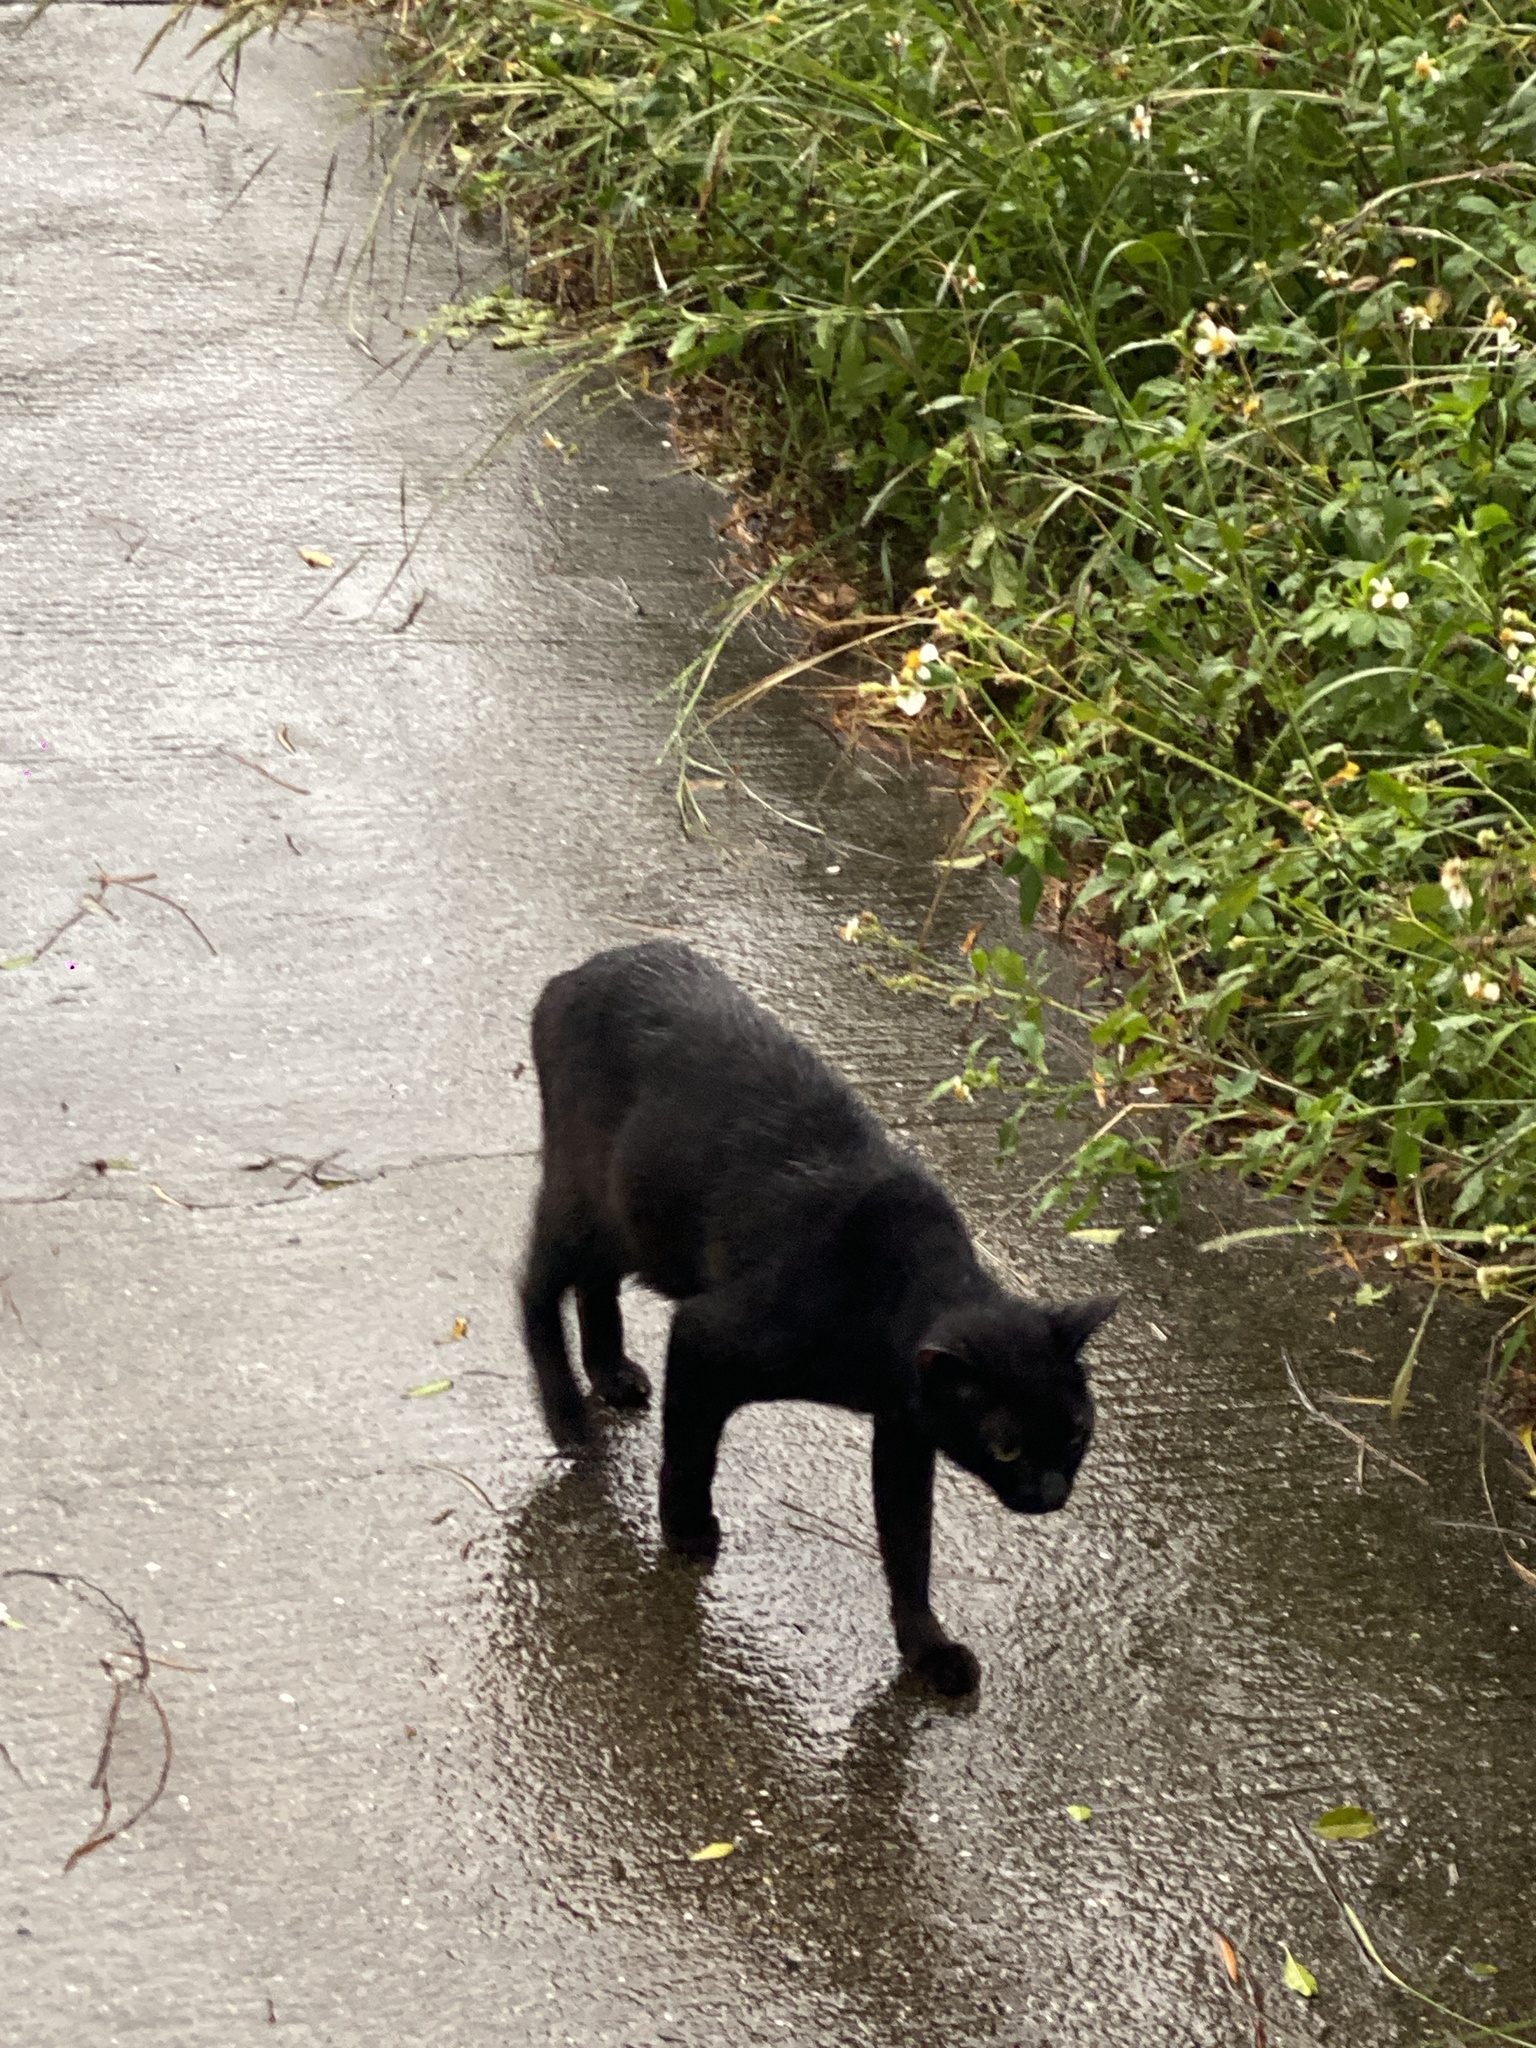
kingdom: Animalia
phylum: Chordata
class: Mammalia
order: Carnivora
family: Felidae
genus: Felis
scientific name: Felis catus
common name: Domestic cat
